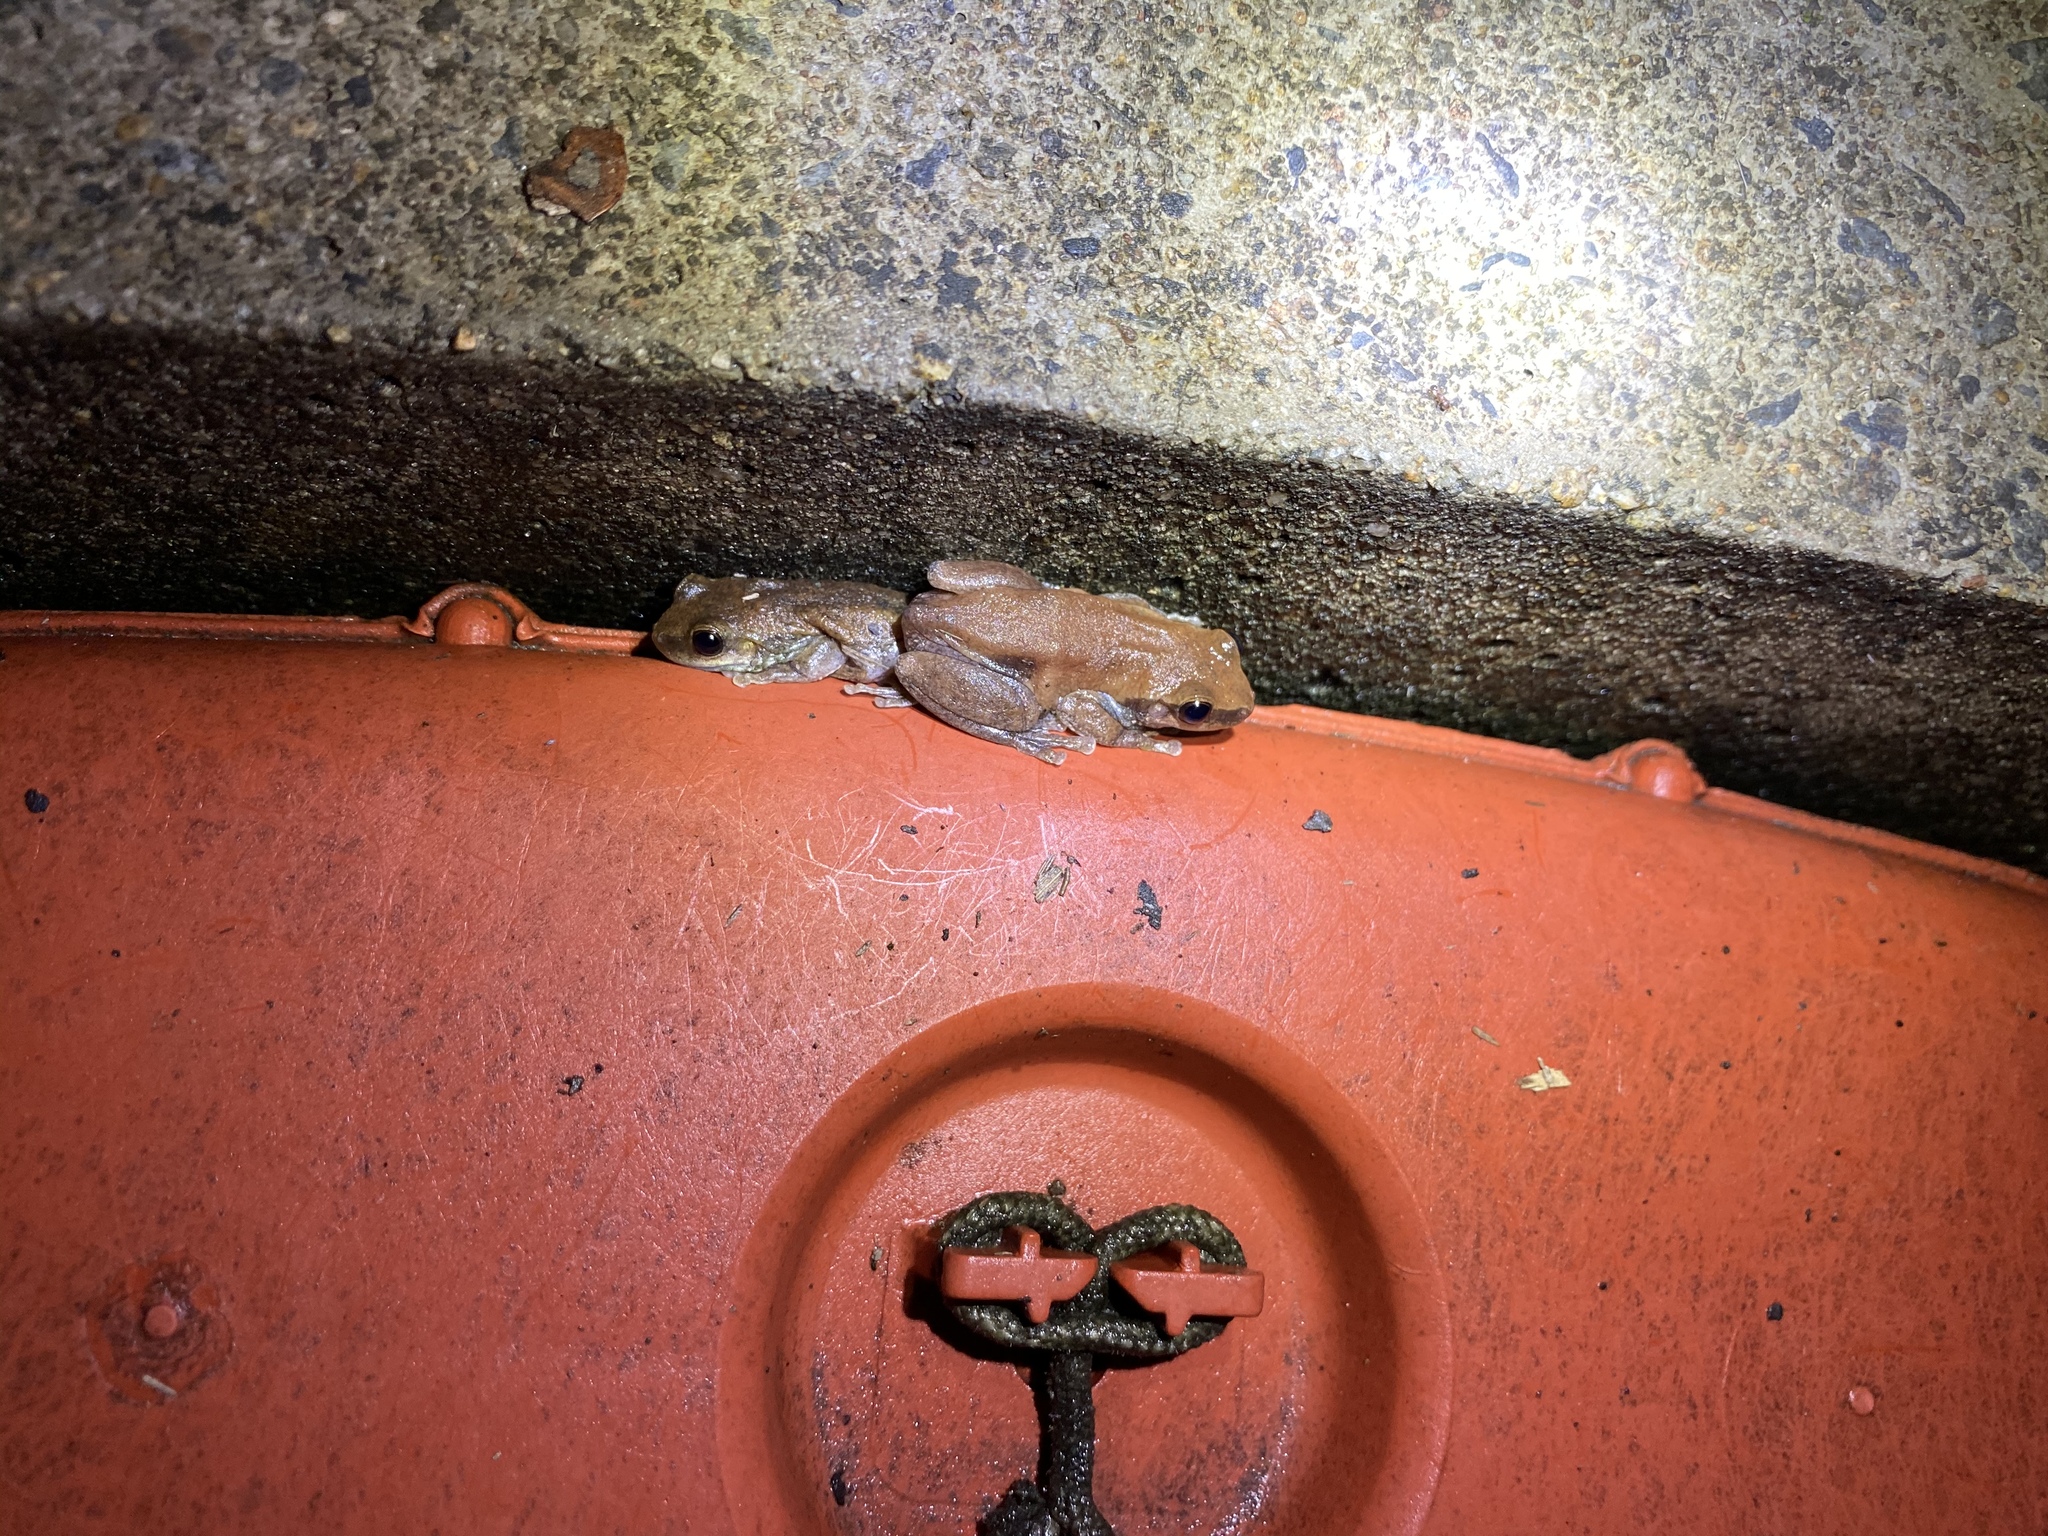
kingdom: Animalia
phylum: Chordata
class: Amphibia
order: Anura
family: Pelodryadidae
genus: Litoria
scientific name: Litoria rubella
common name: Desert tree frog
